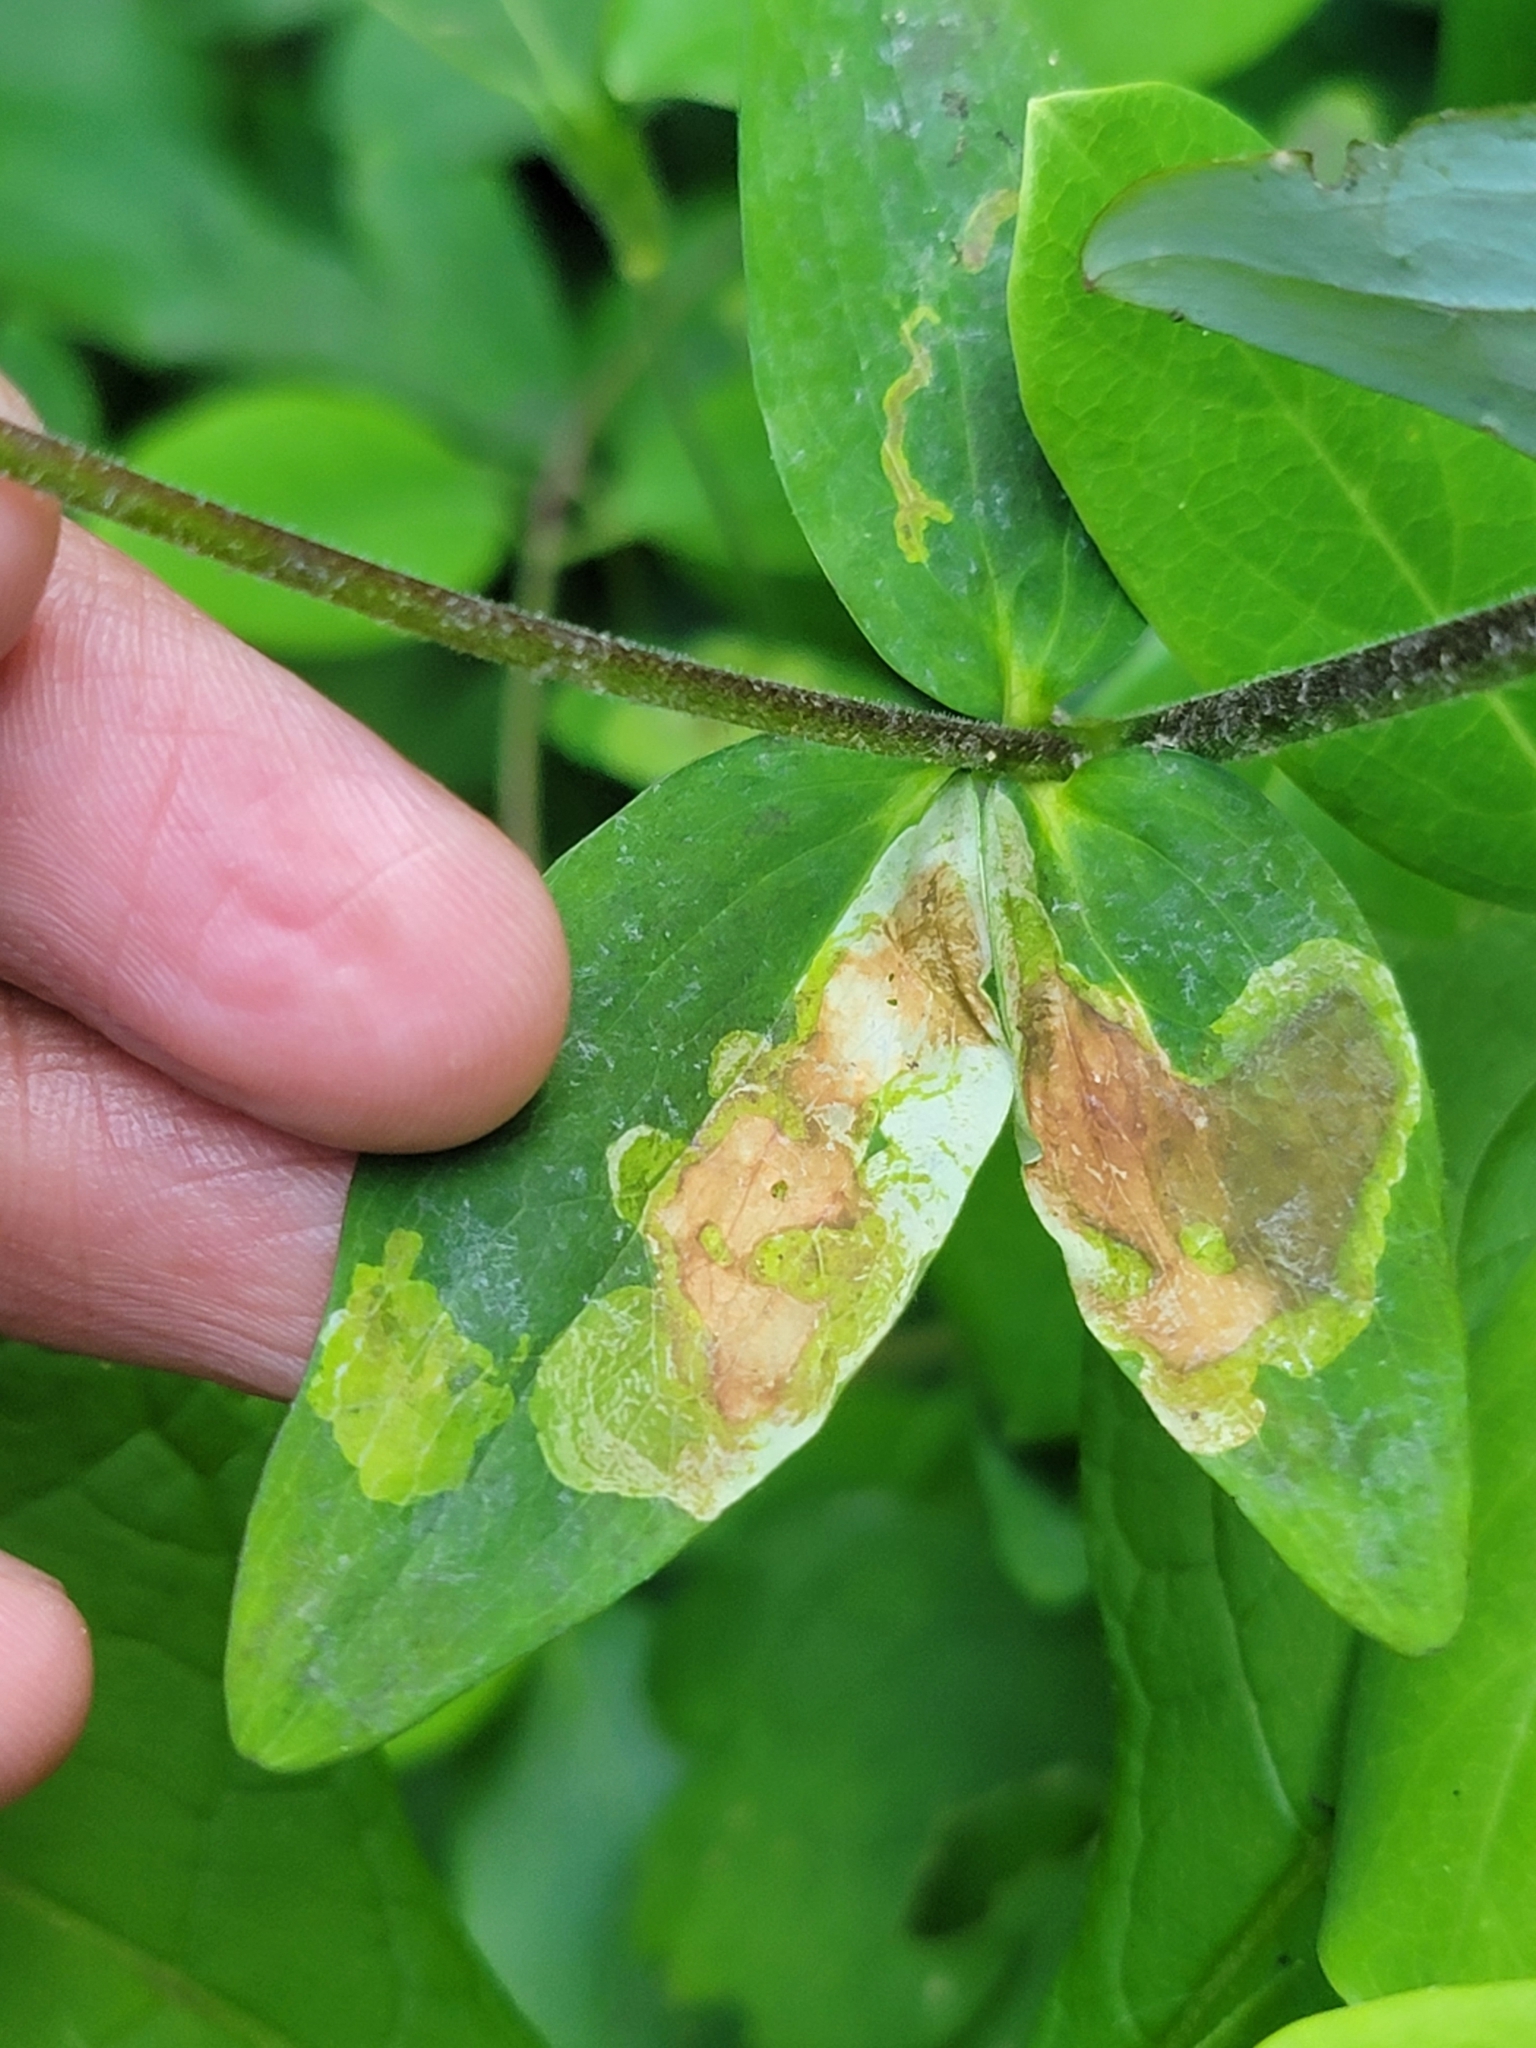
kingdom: Animalia
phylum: Arthropoda
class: Insecta
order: Diptera
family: Agromyzidae
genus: Phytomyza
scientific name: Phytomyza aquilegiana
